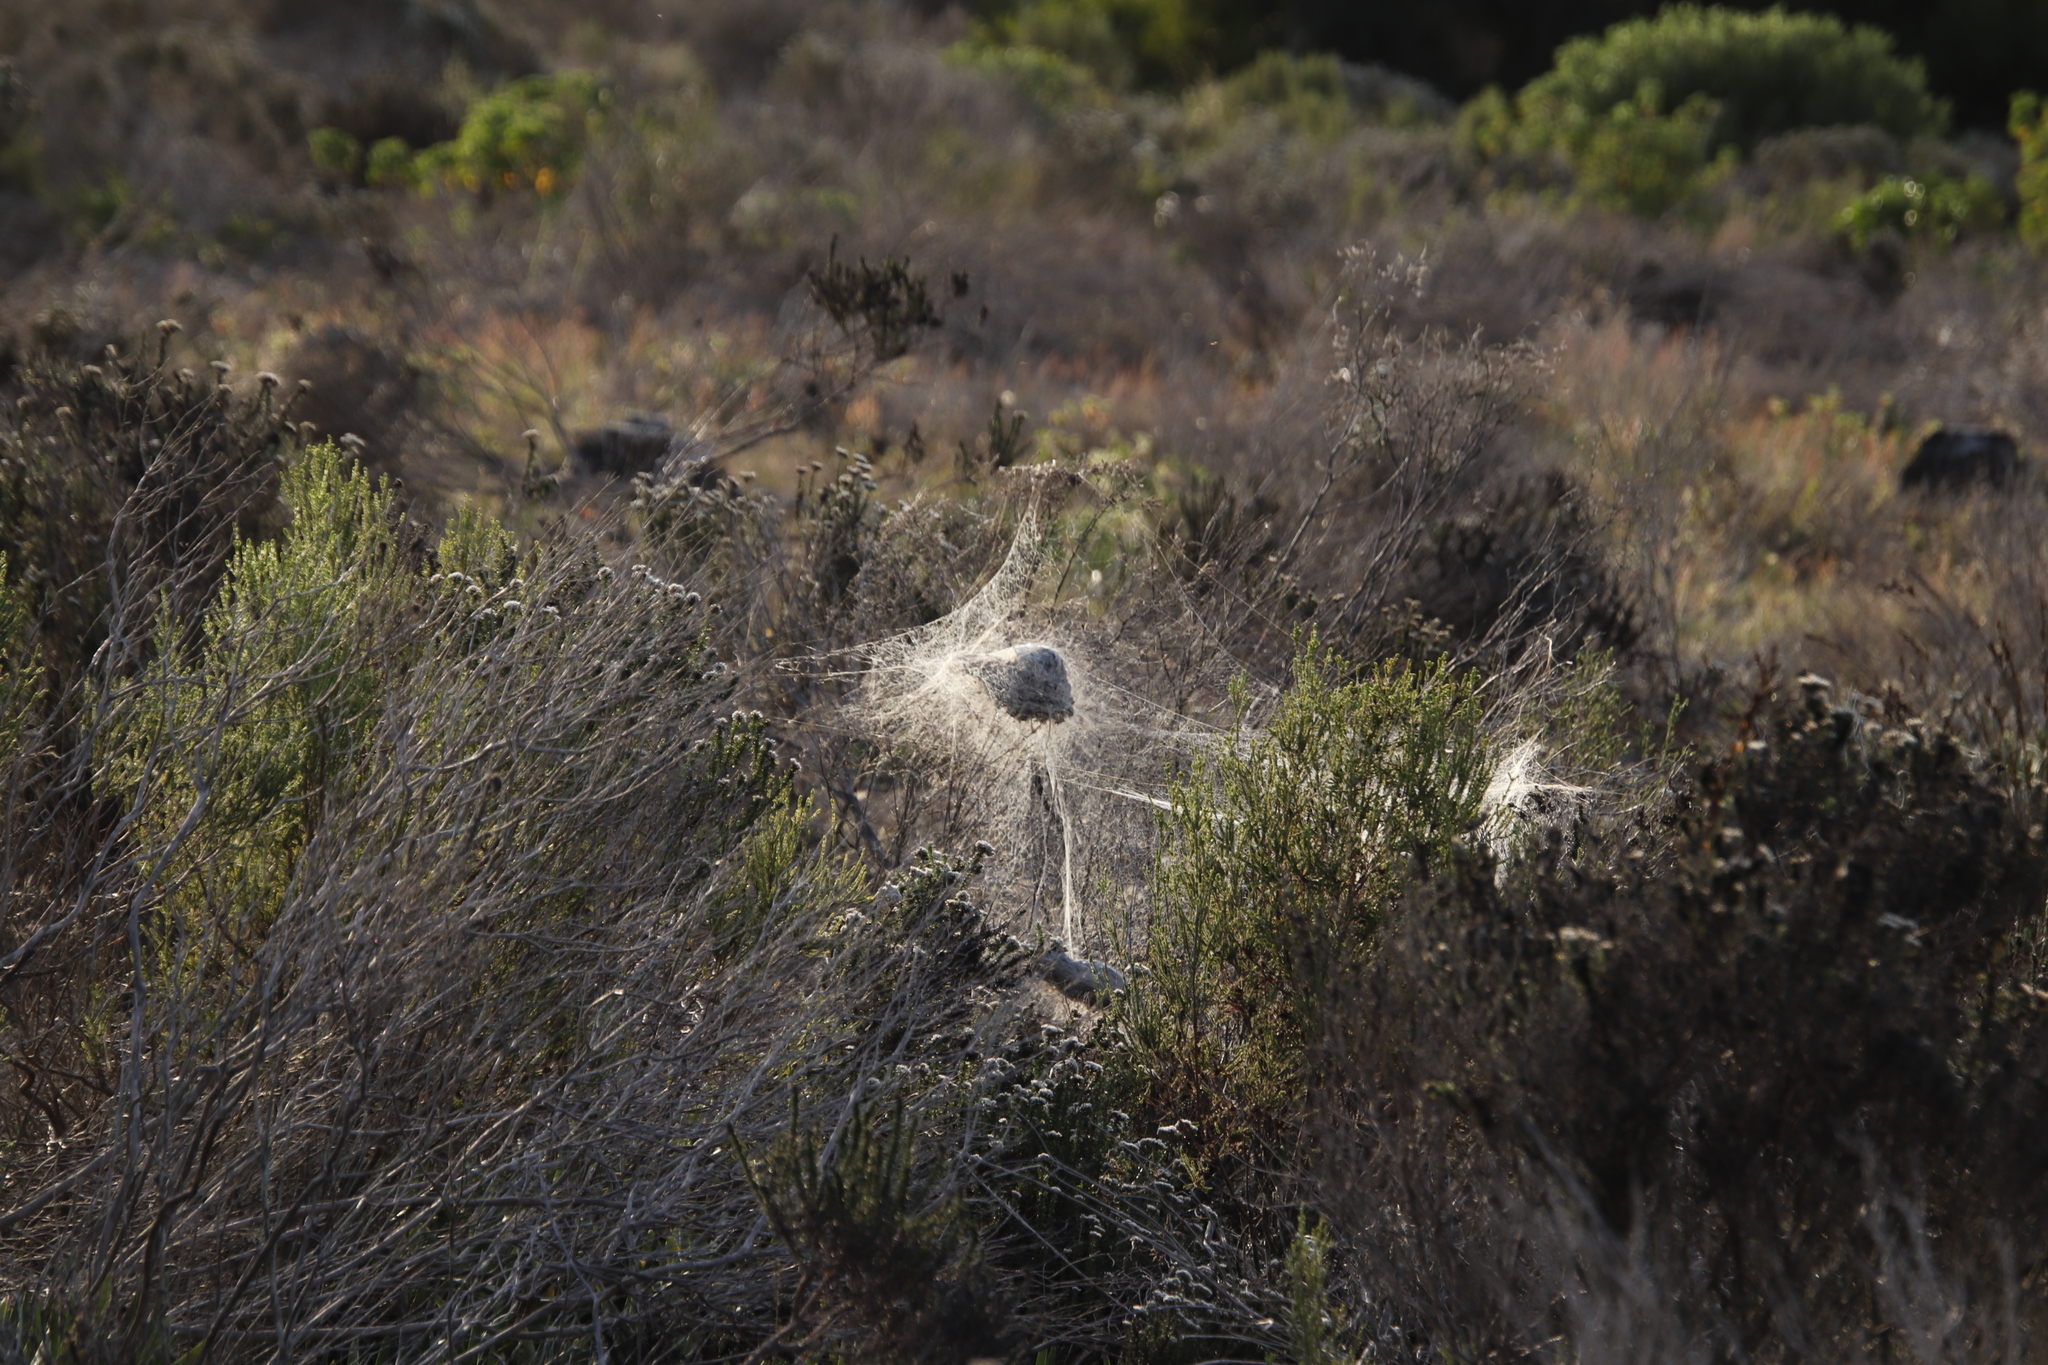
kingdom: Animalia
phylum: Arthropoda
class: Arachnida
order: Araneae
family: Eresidae
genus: Stegodyphus
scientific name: Stegodyphus dumicola
